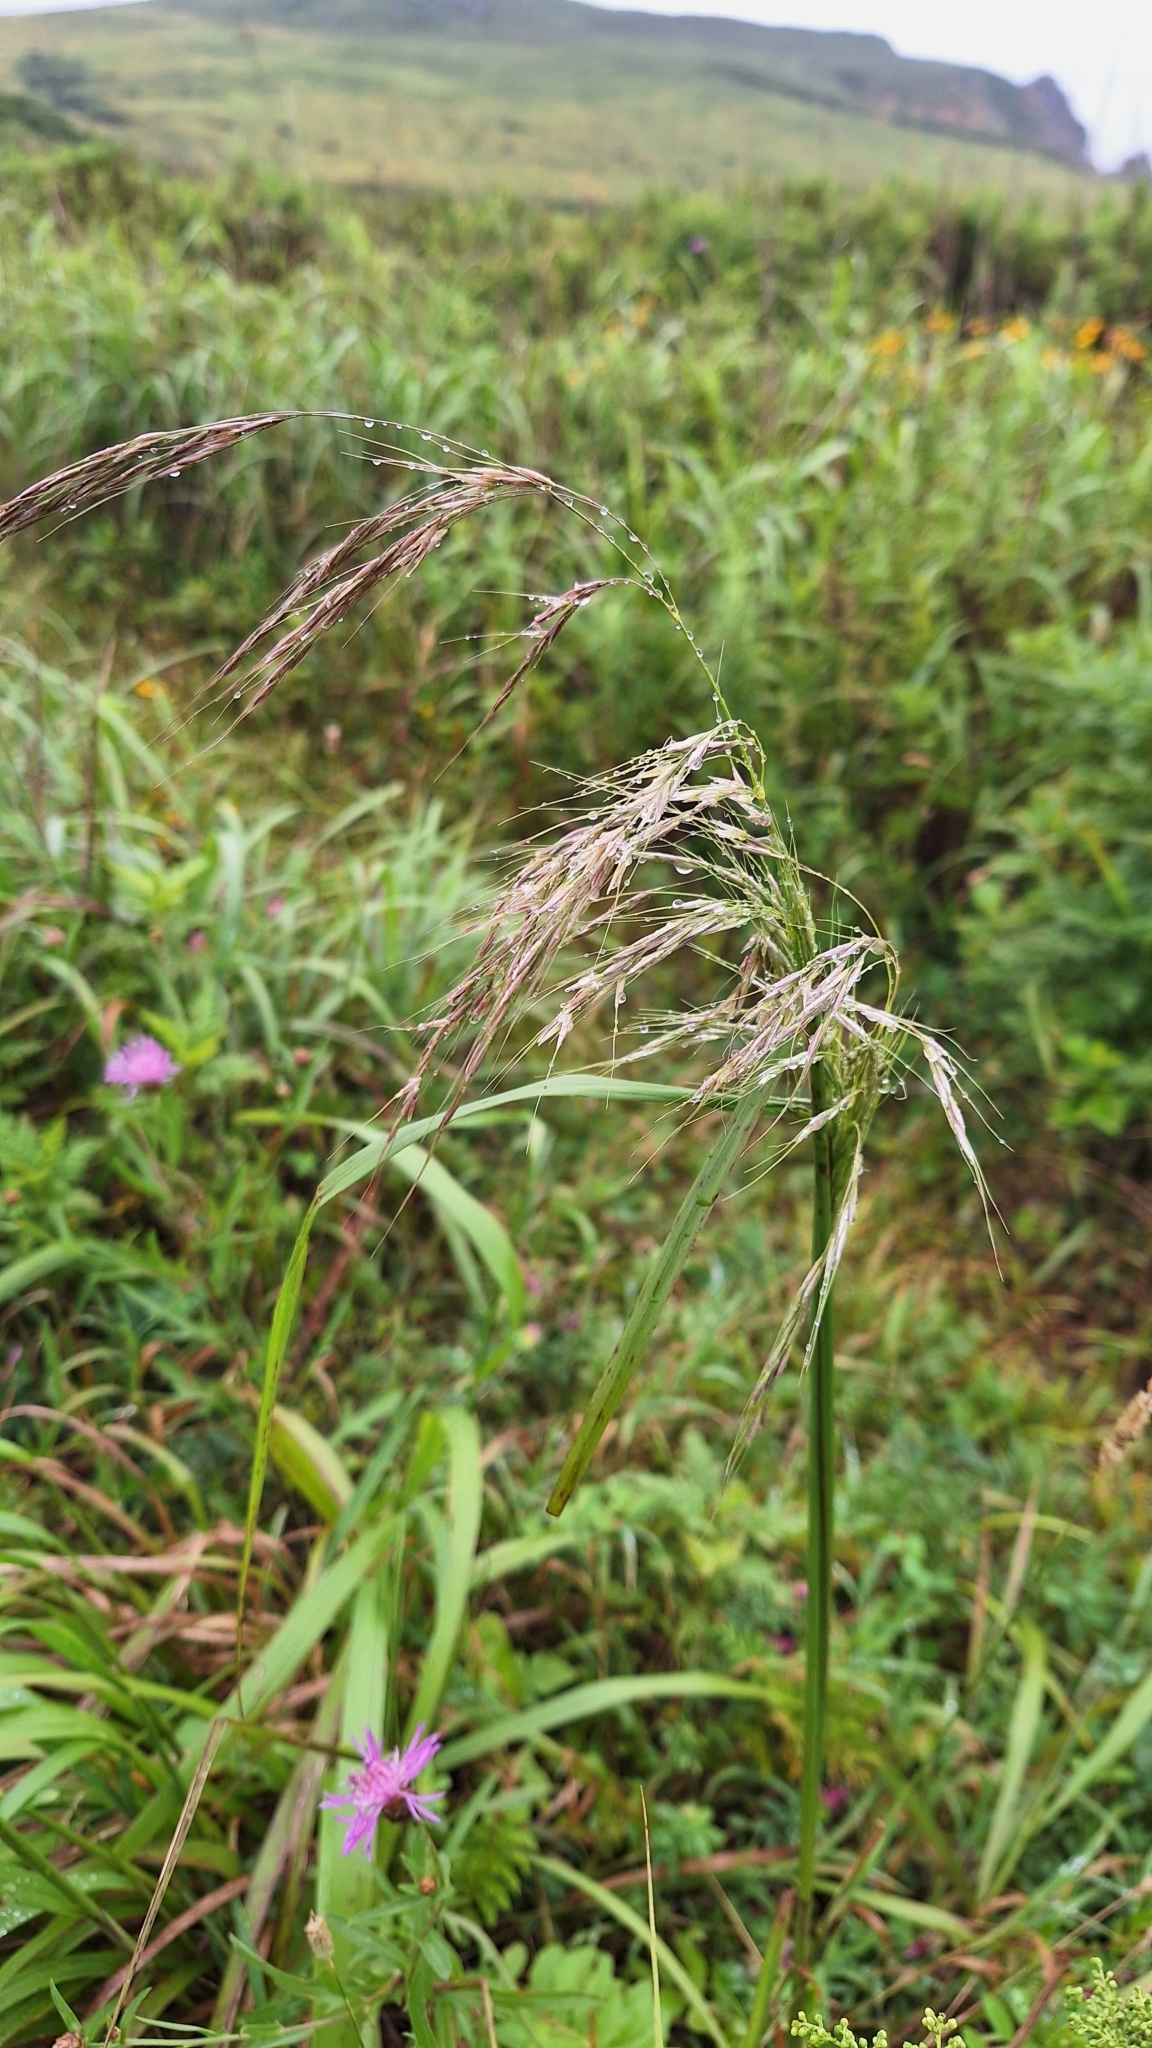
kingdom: Plantae
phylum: Tracheophyta
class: Liliopsida
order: Poales
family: Poaceae
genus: Achnatherum
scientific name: Achnatherum pekinense
